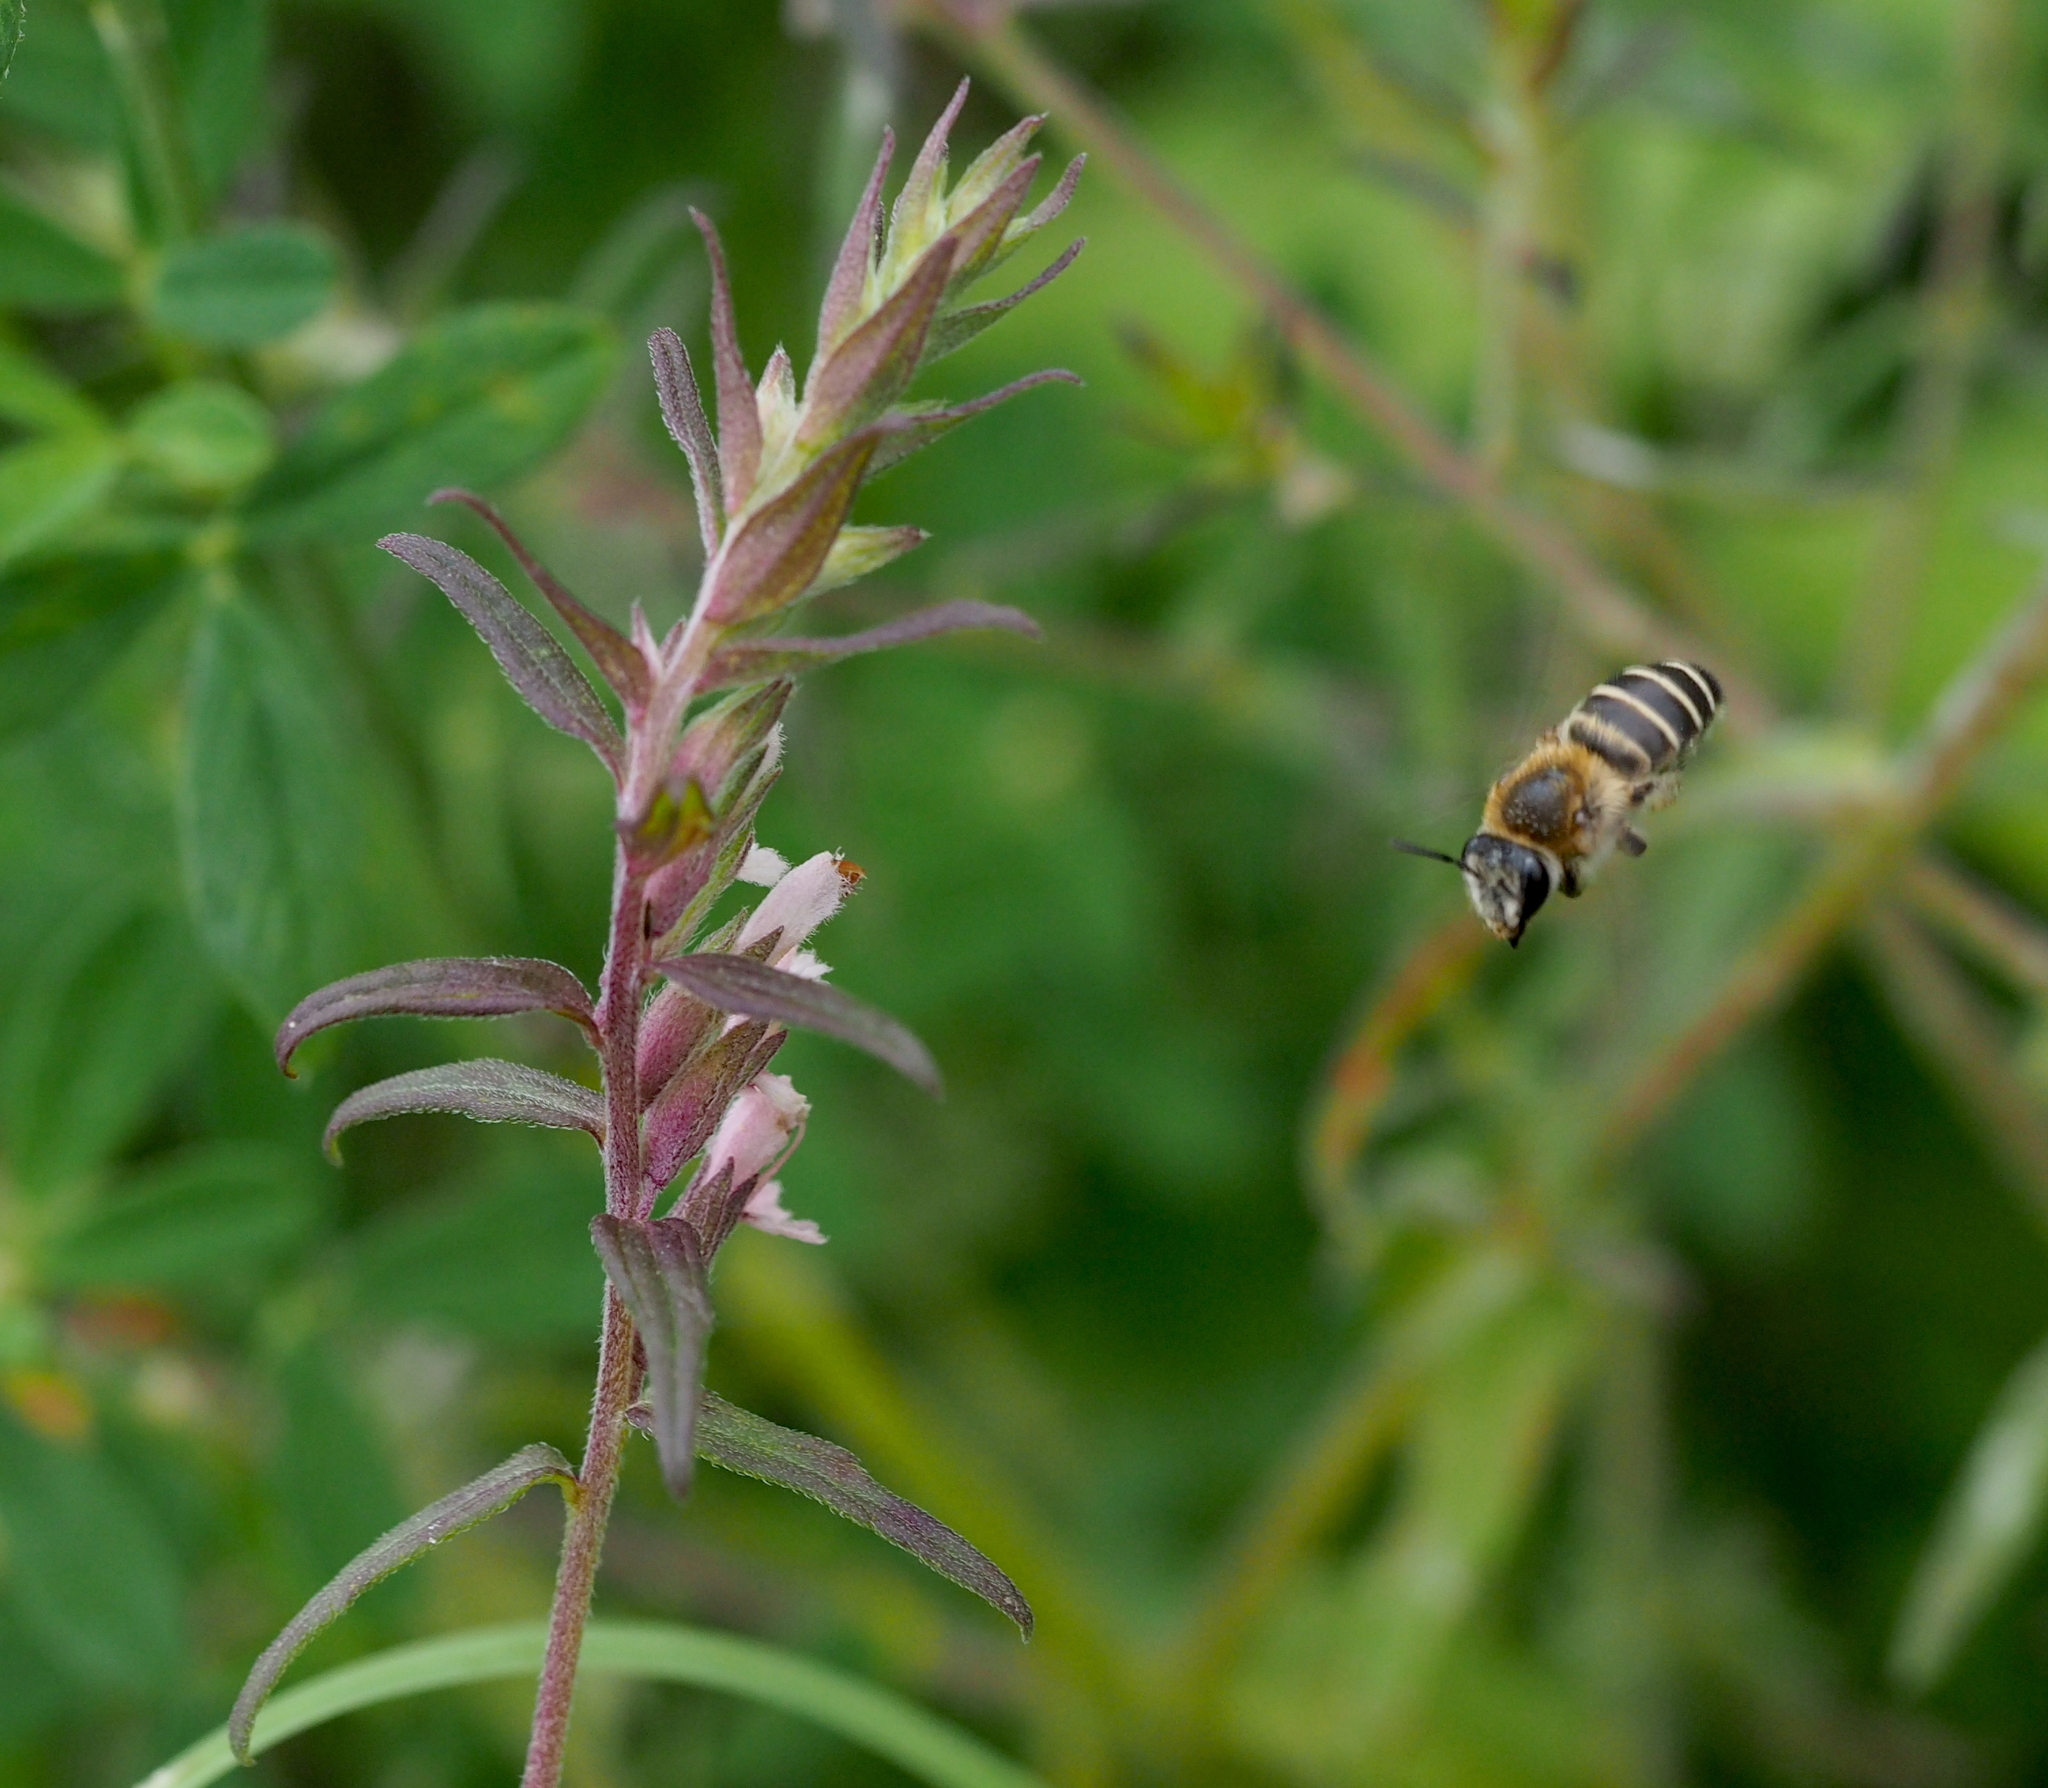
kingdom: Animalia
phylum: Arthropoda
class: Insecta
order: Hymenoptera
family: Melittidae
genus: Melitta
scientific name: Melitta tricincta
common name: Red bartsia bee
